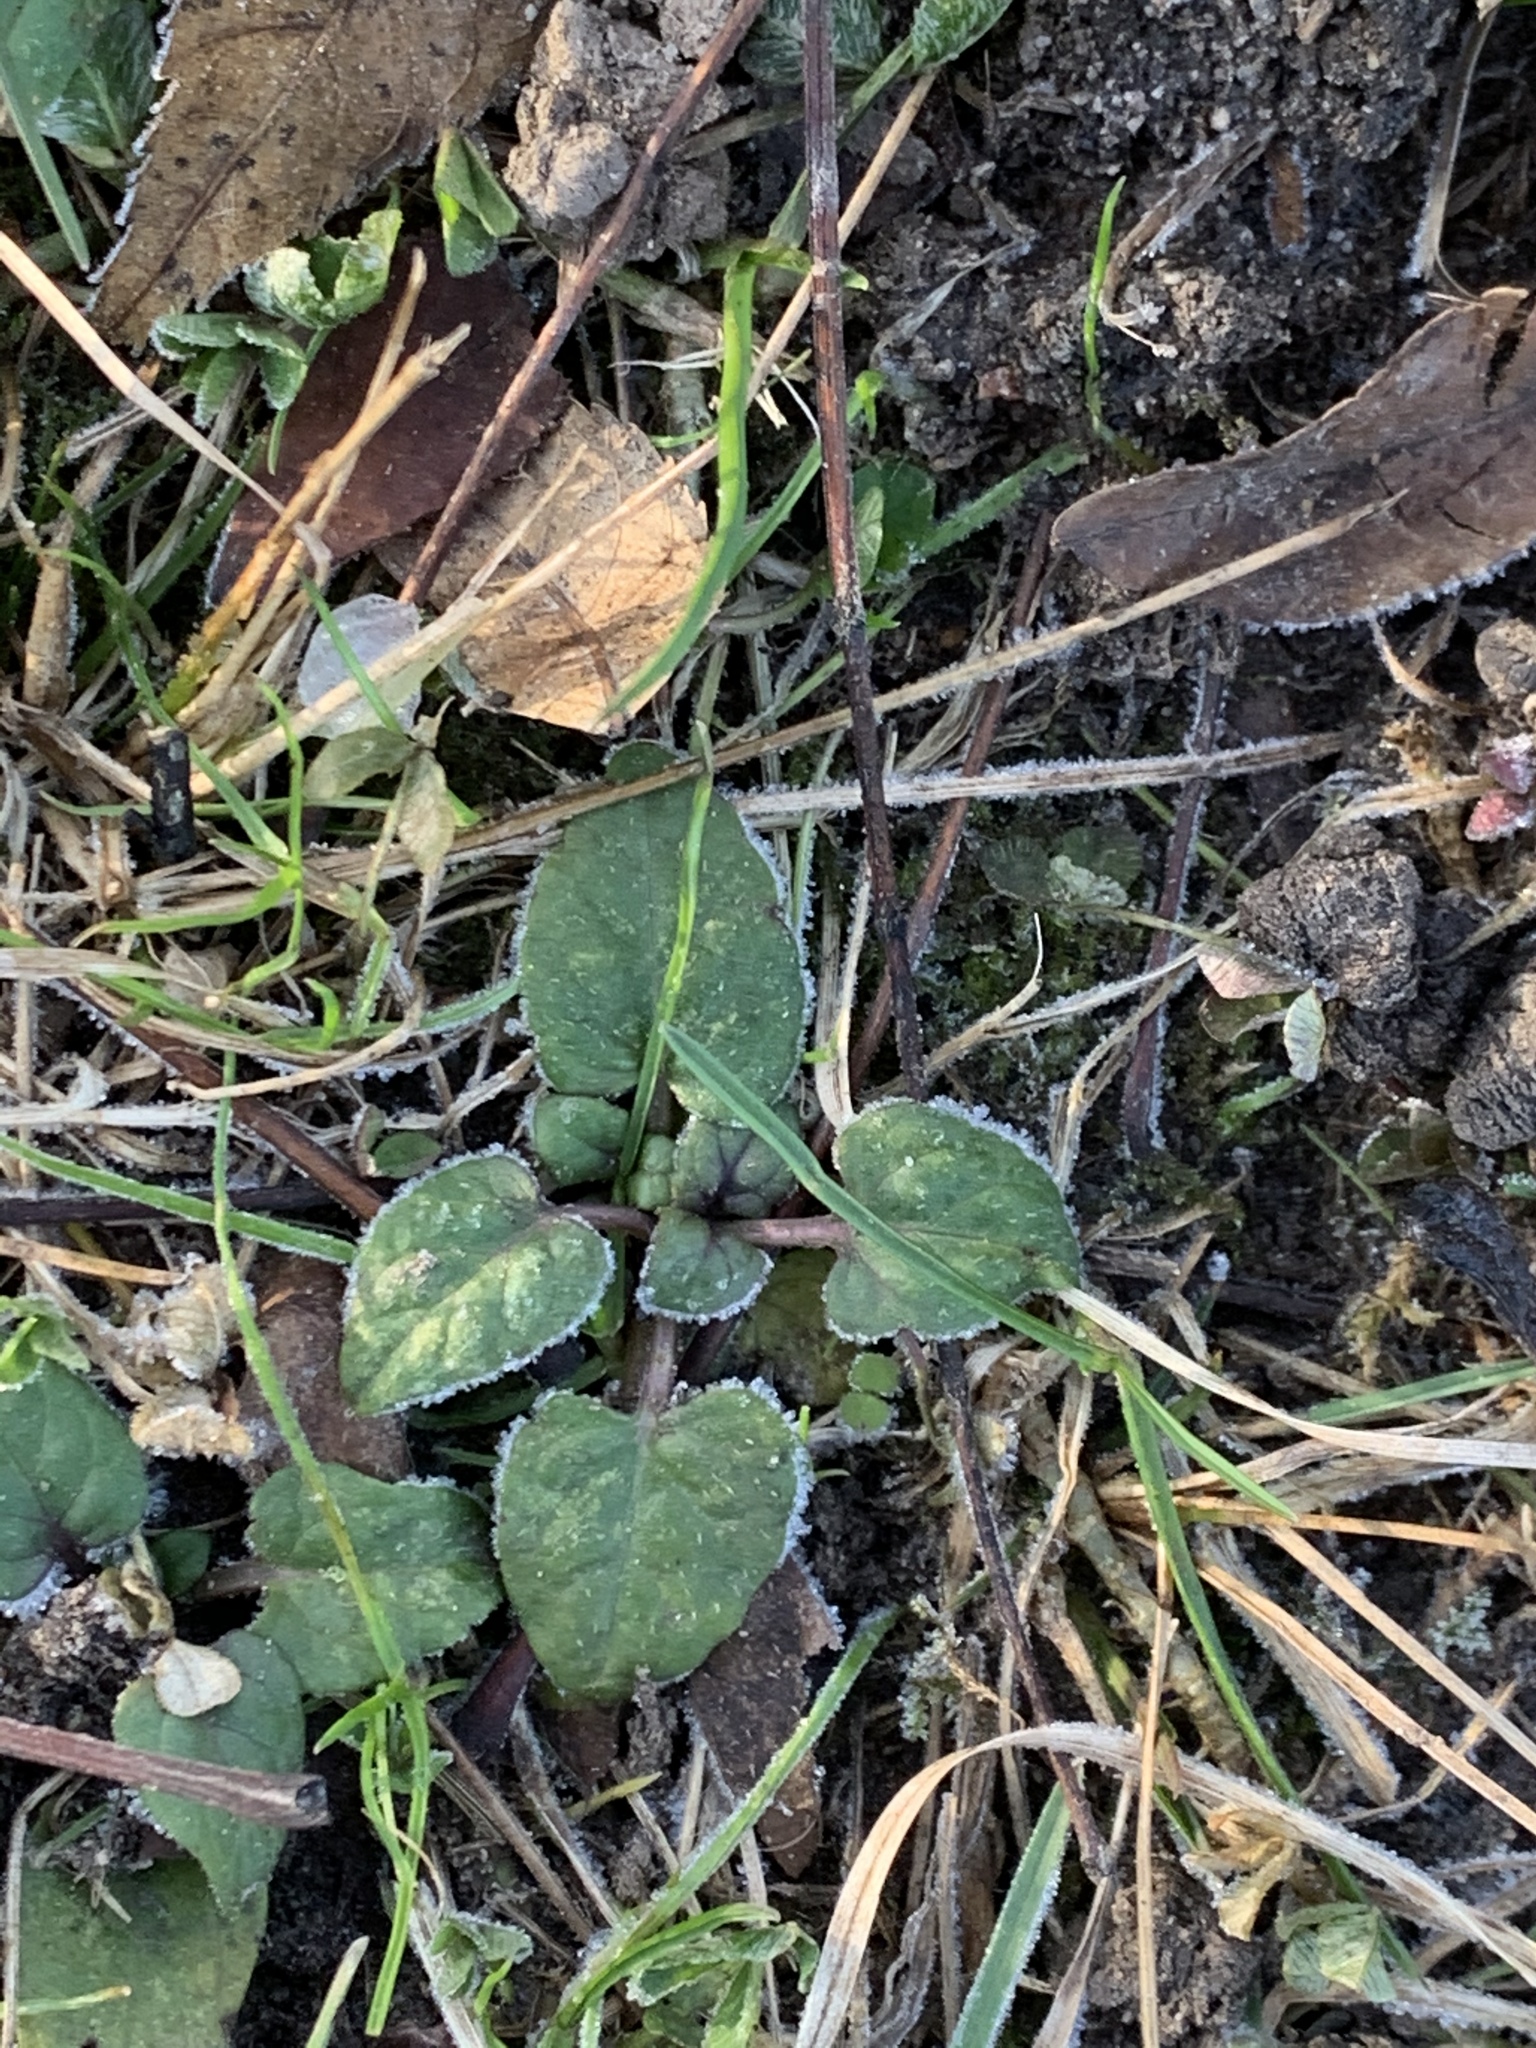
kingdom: Plantae
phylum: Tracheophyta
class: Magnoliopsida
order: Lamiales
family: Lamiaceae
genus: Prunella
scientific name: Prunella vulgaris
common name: Heal-all
